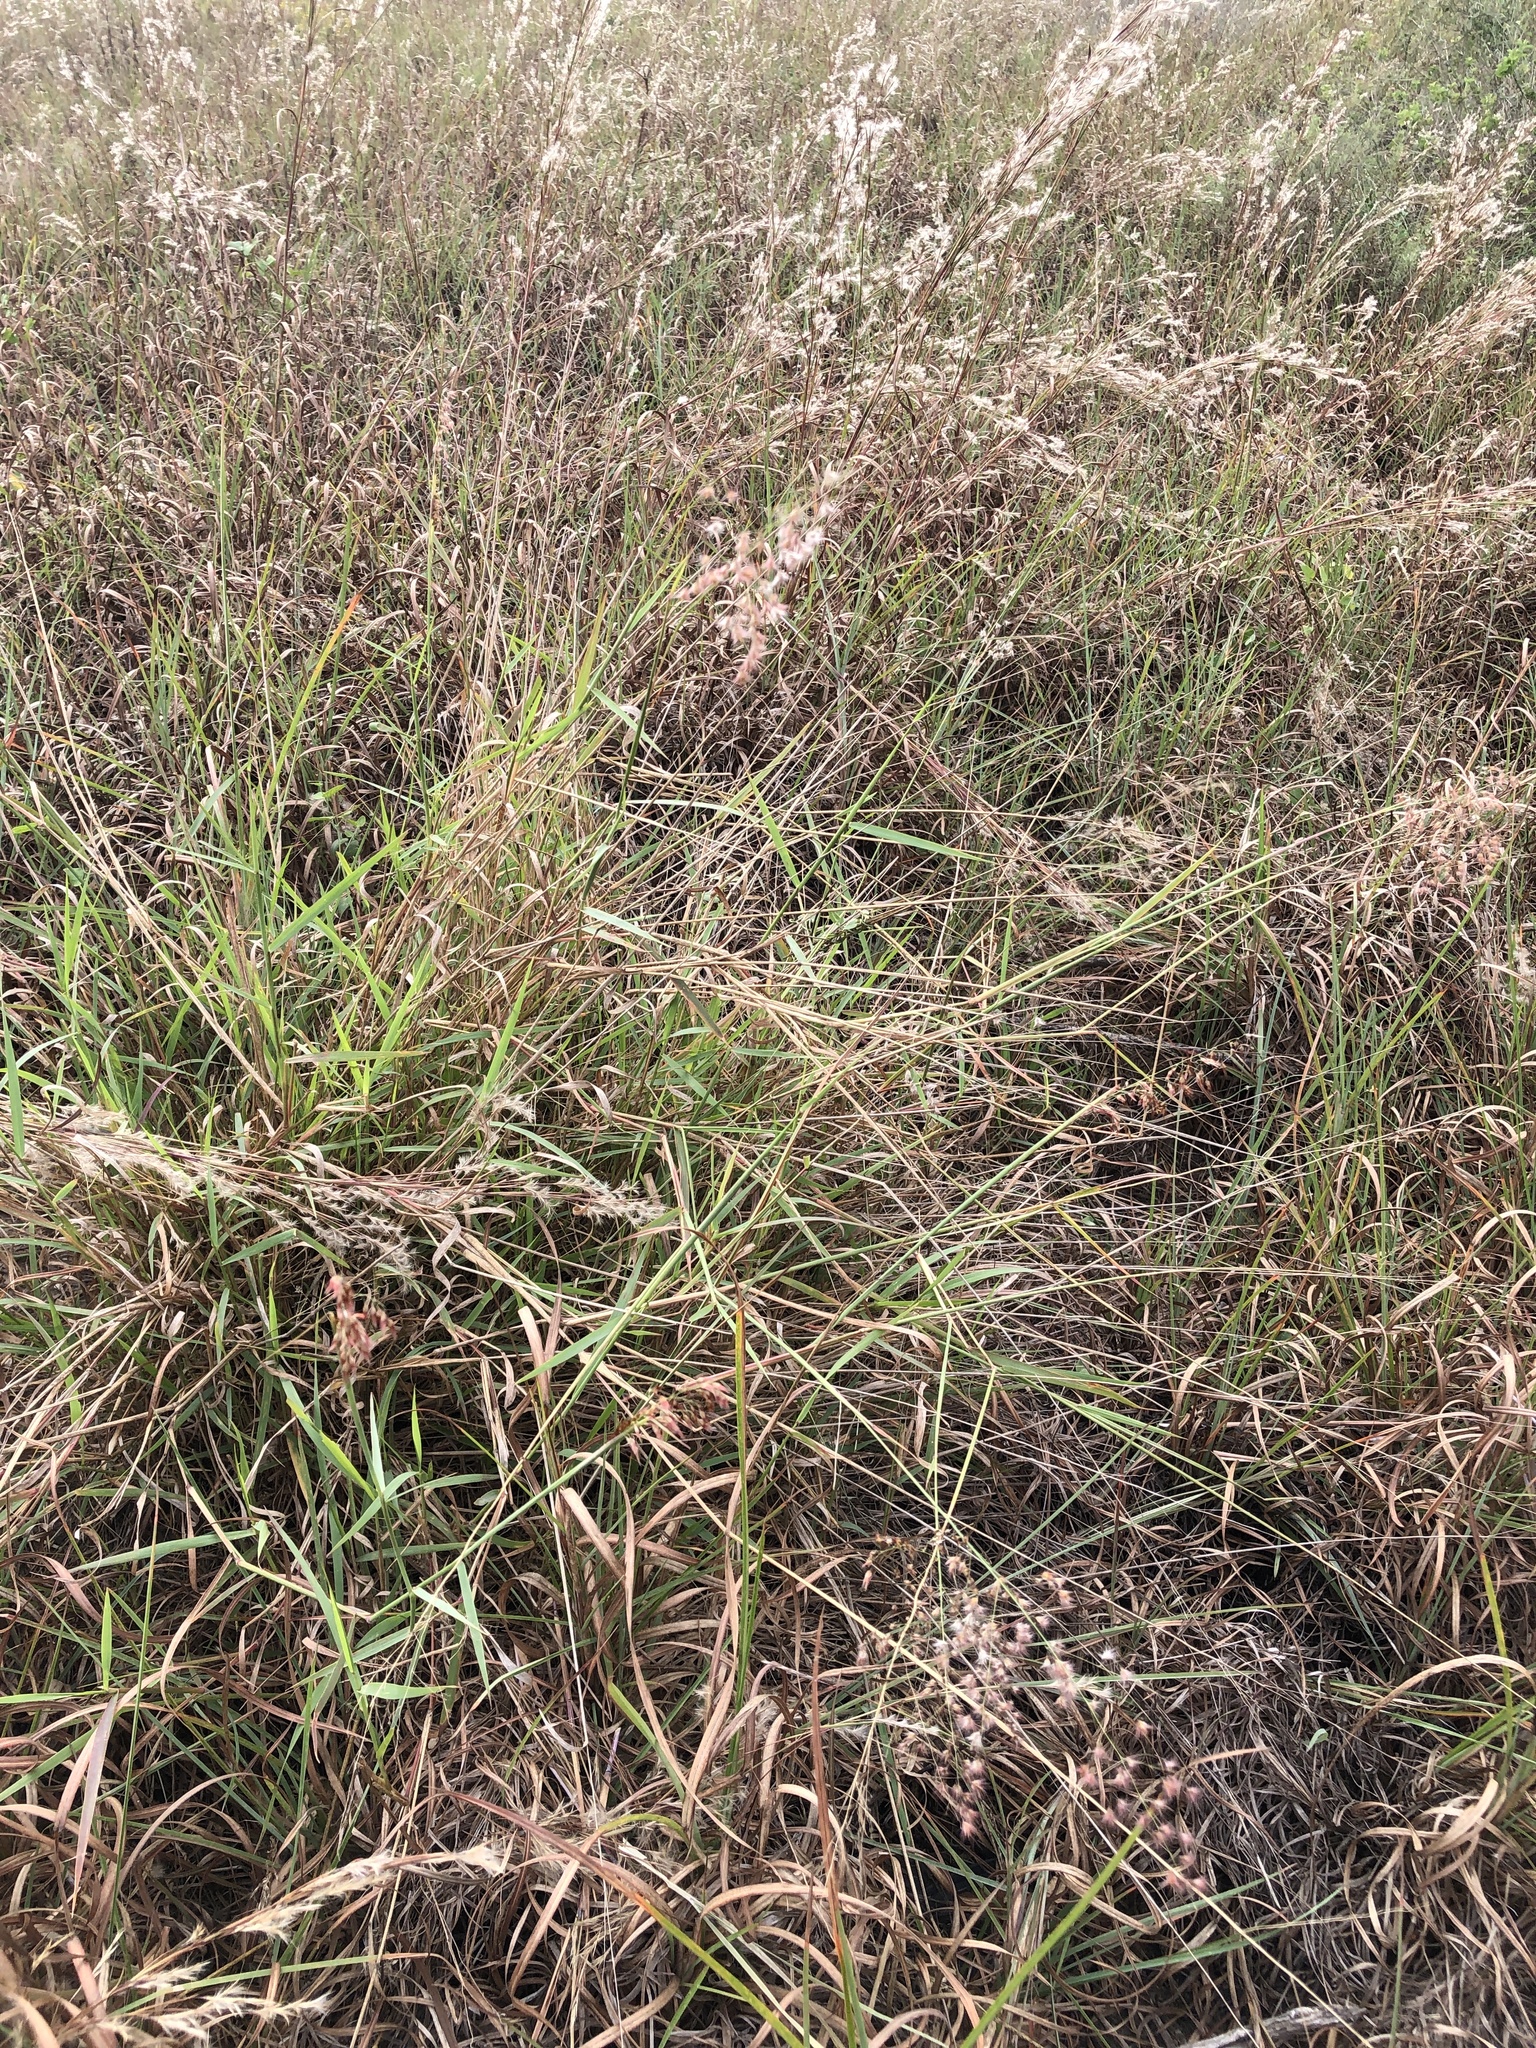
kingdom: Plantae
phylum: Tracheophyta
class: Liliopsida
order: Poales
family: Poaceae
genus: Melinis
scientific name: Melinis repens
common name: Rose natal grass
